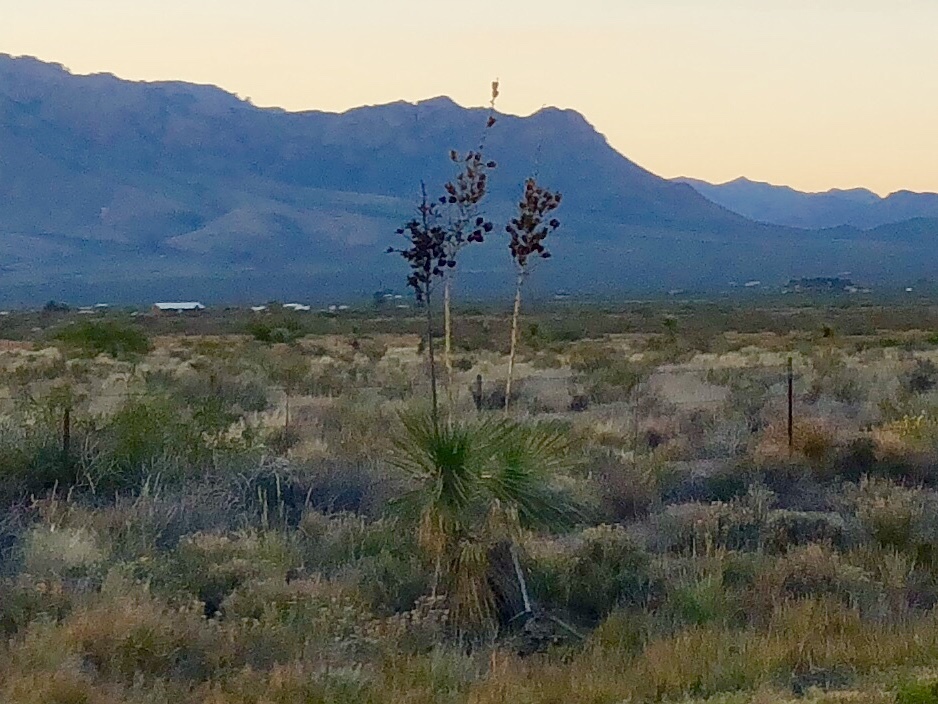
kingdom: Plantae
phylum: Tracheophyta
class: Liliopsida
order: Asparagales
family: Asparagaceae
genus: Yucca
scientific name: Yucca elata
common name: Palmella
